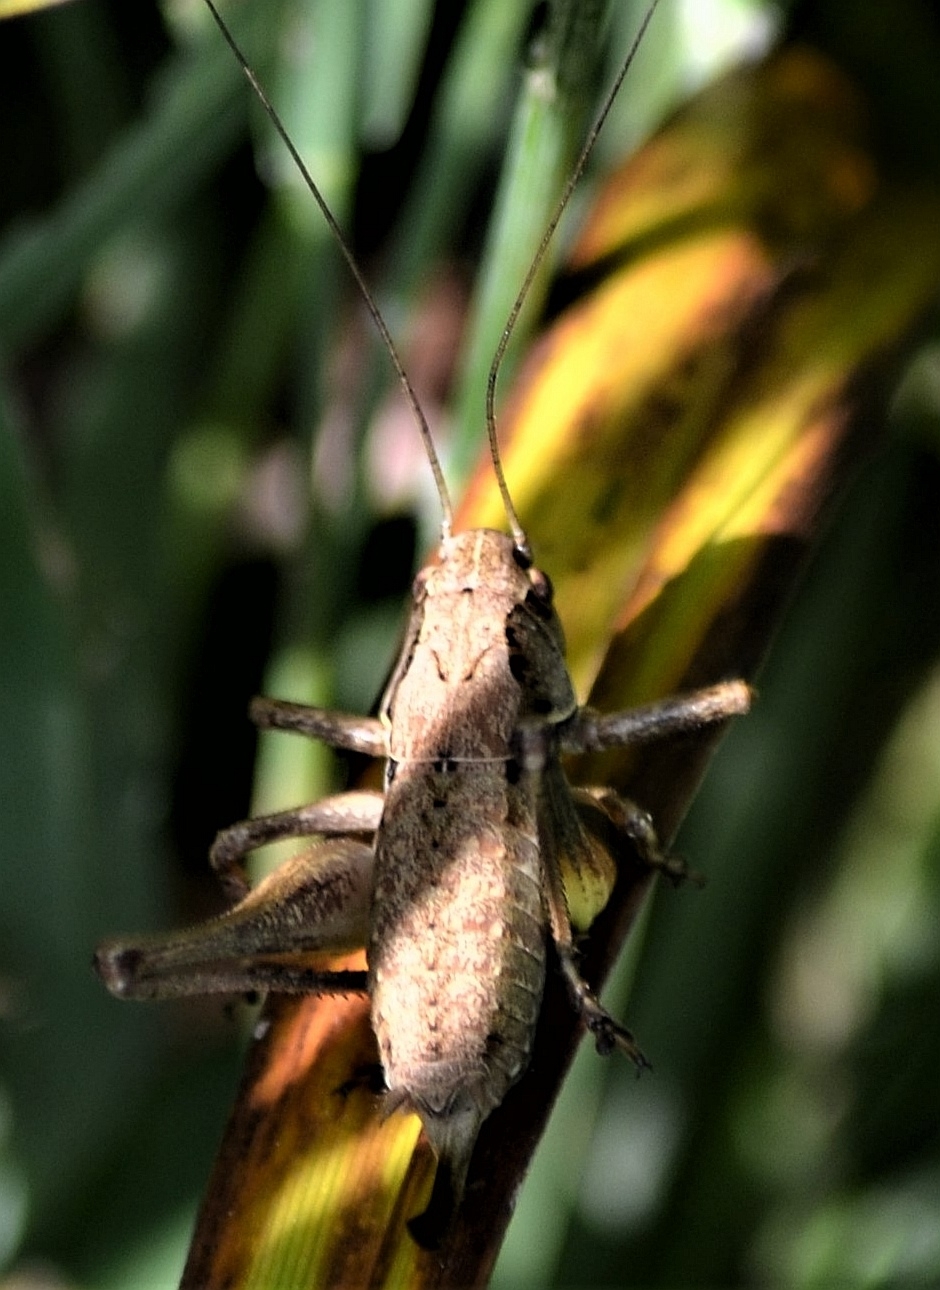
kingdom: Animalia
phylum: Arthropoda
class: Insecta
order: Orthoptera
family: Tettigoniidae
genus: Pholidoptera
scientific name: Pholidoptera griseoaptera
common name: Dark bush-cricket
